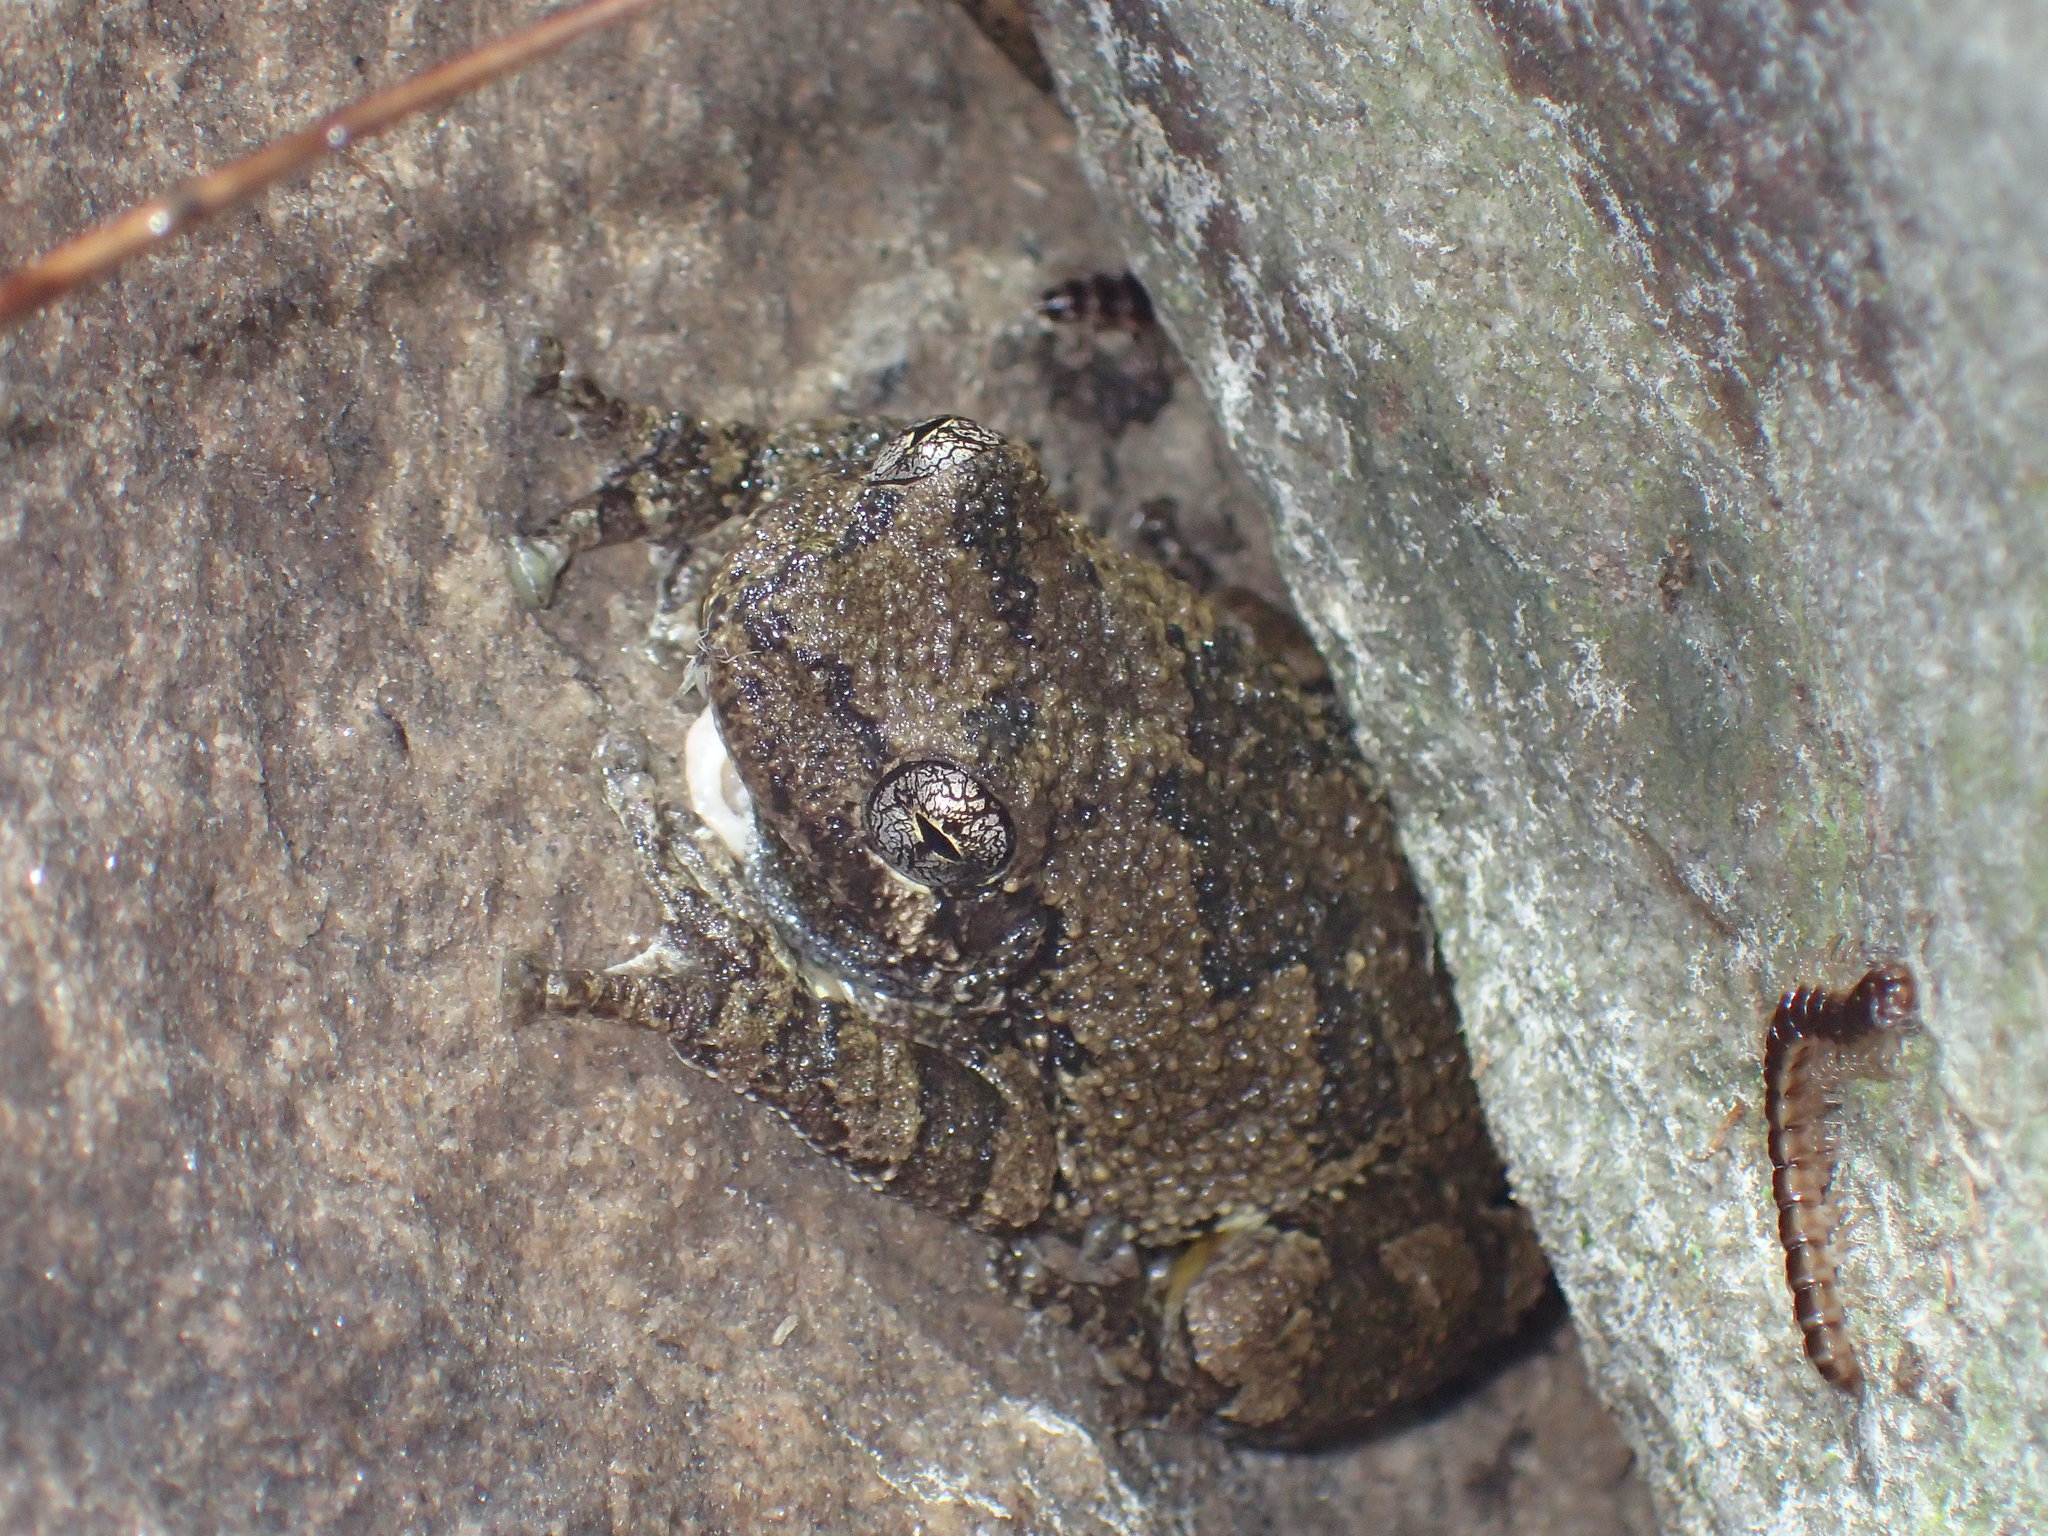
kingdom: Animalia
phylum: Chordata
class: Amphibia
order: Anura
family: Hylidae
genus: Dryophytes
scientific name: Dryophytes chrysoscelis
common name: Cope's gray treefrog
